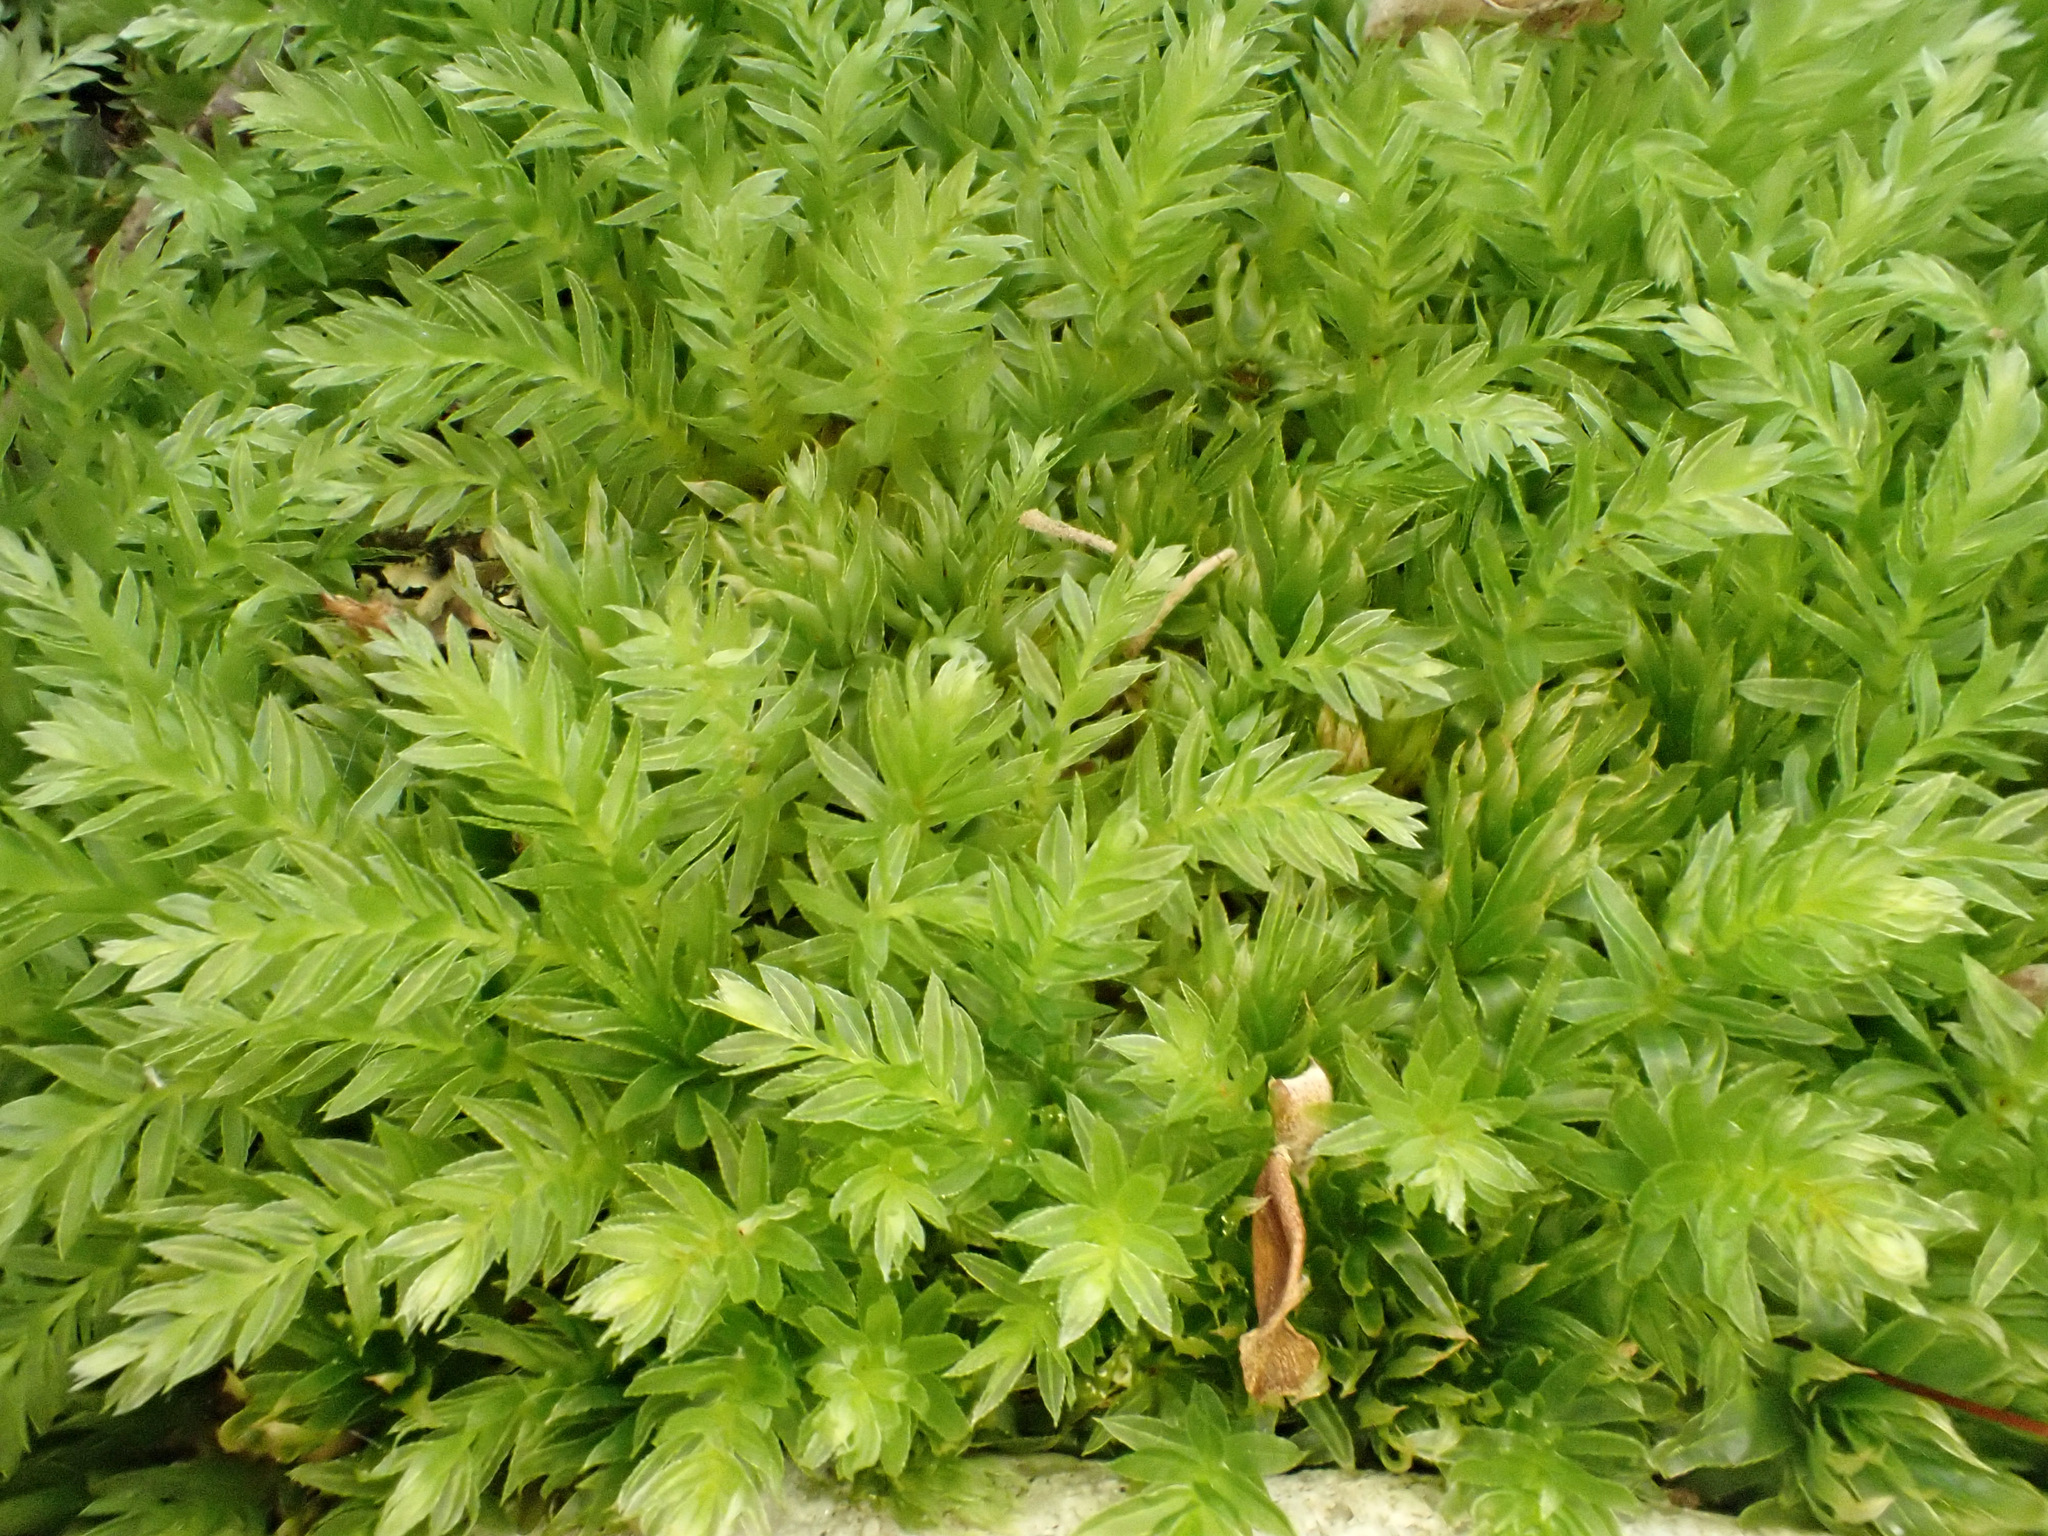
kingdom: Plantae
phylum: Bryophyta
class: Bryopsida
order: Bryales
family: Mniaceae
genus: Mnium
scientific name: Mnium hornum
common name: Swan's-neck leafy moss
